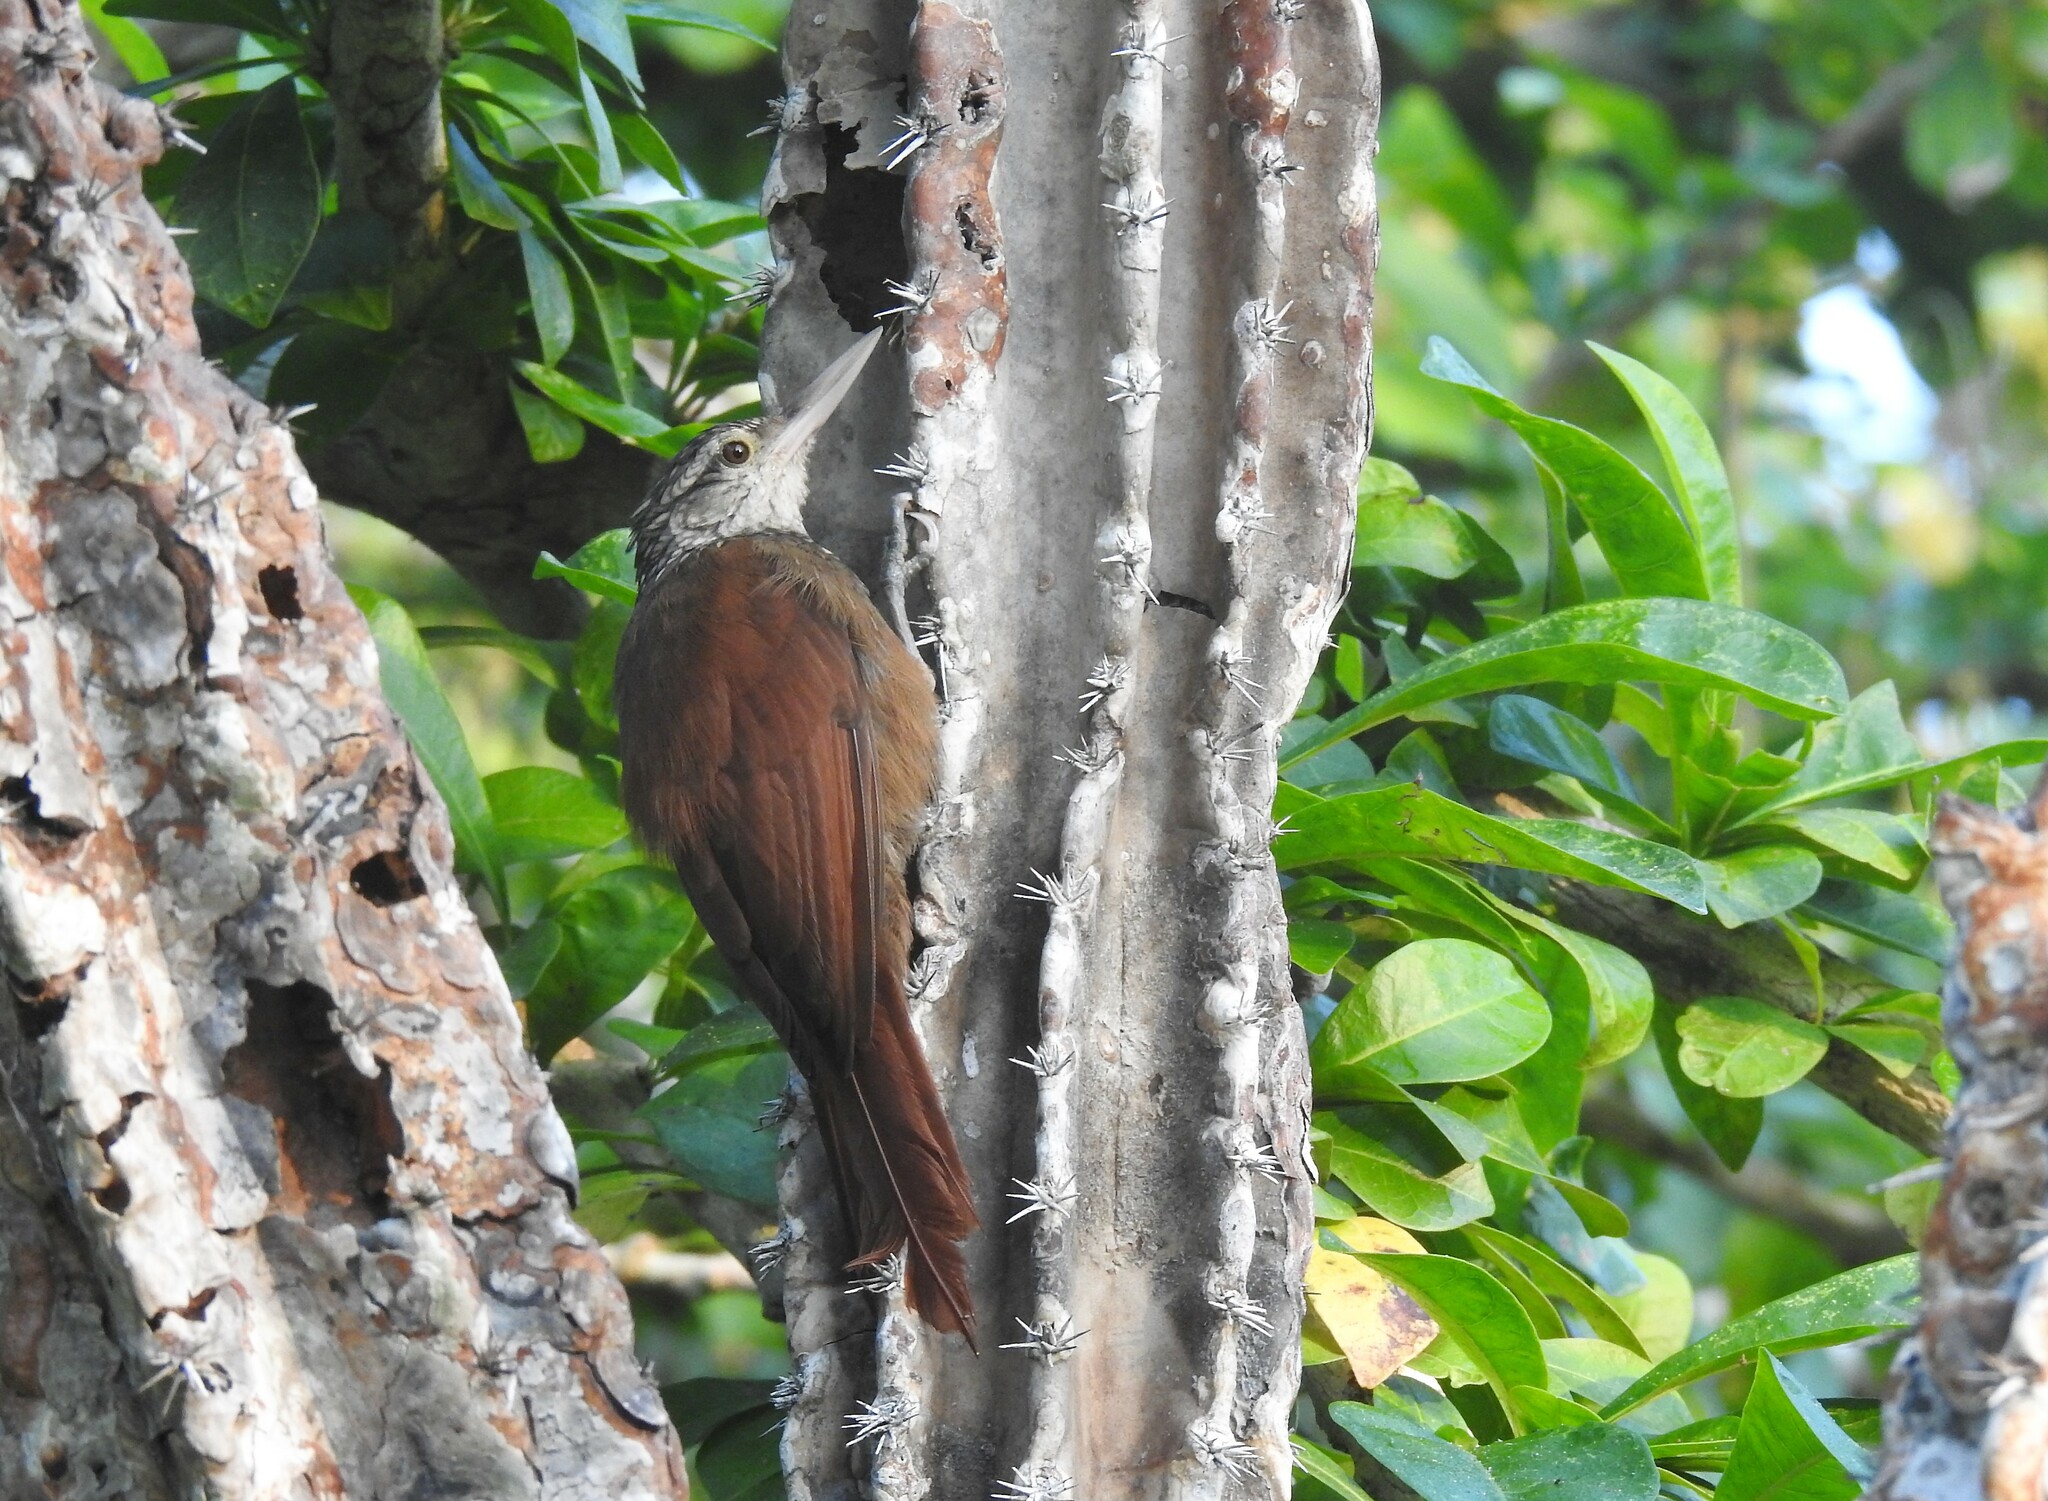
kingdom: Animalia
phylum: Chordata
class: Aves
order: Passeriformes
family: Furnariidae
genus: Xiphorhynchus
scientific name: Xiphorhynchus picus
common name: Straight-billed woodcreeper
